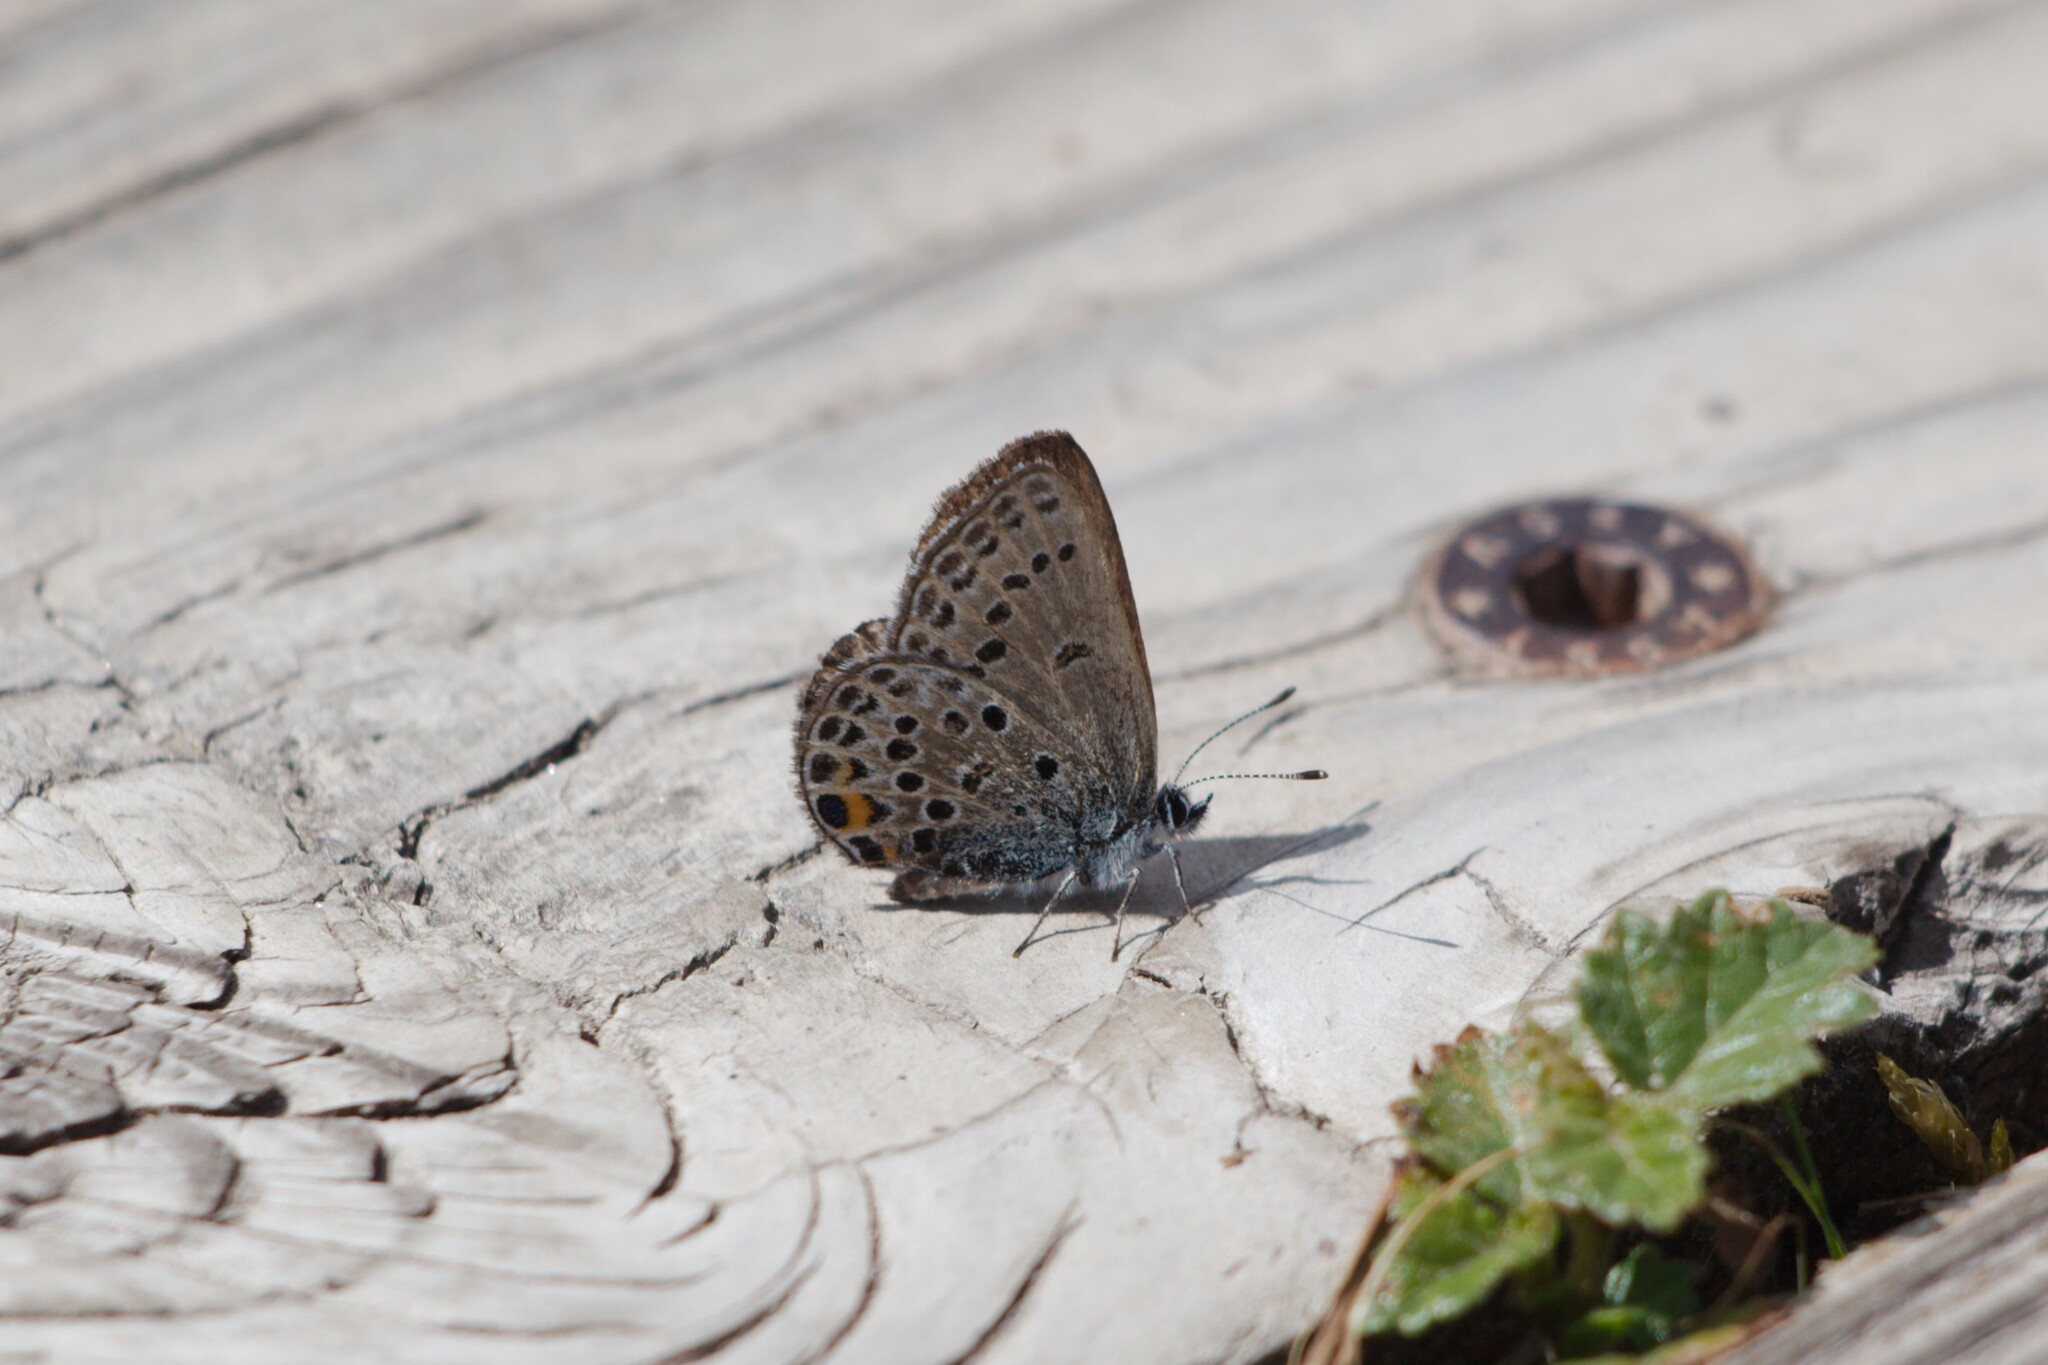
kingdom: Animalia
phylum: Arthropoda
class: Insecta
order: Lepidoptera
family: Lycaenidae
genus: Vacciniina
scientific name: Vacciniina optilete
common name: Cranberry blue
